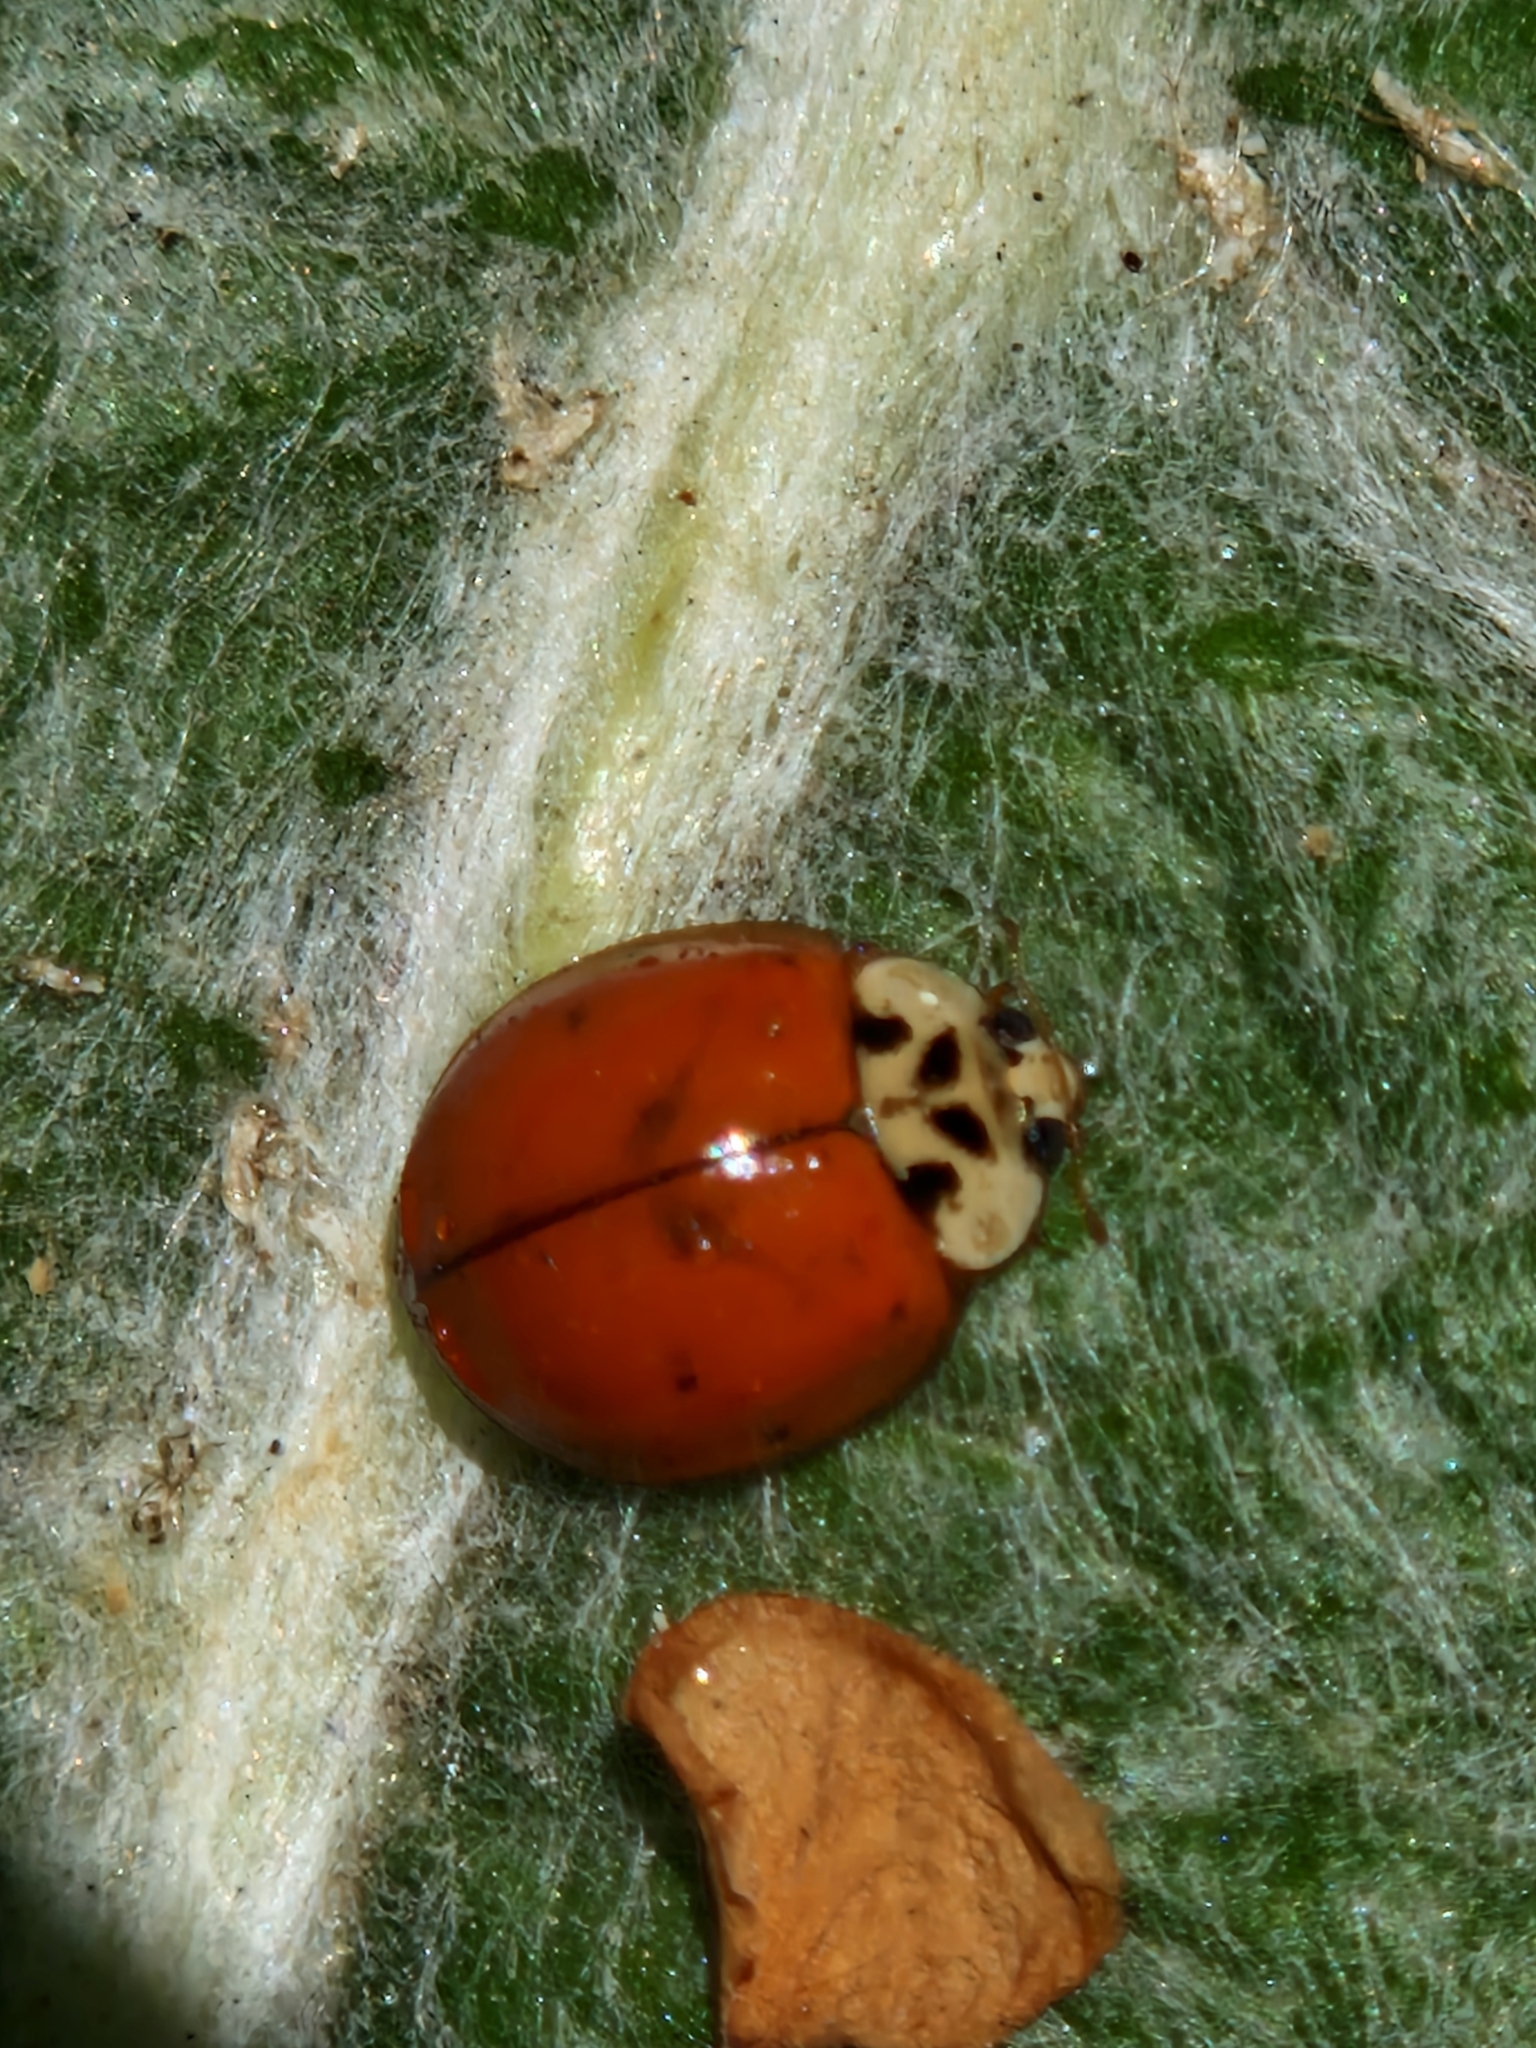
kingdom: Animalia
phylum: Arthropoda
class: Insecta
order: Coleoptera
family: Coccinellidae
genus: Harmonia
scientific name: Harmonia axyridis
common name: Harlequin ladybird
